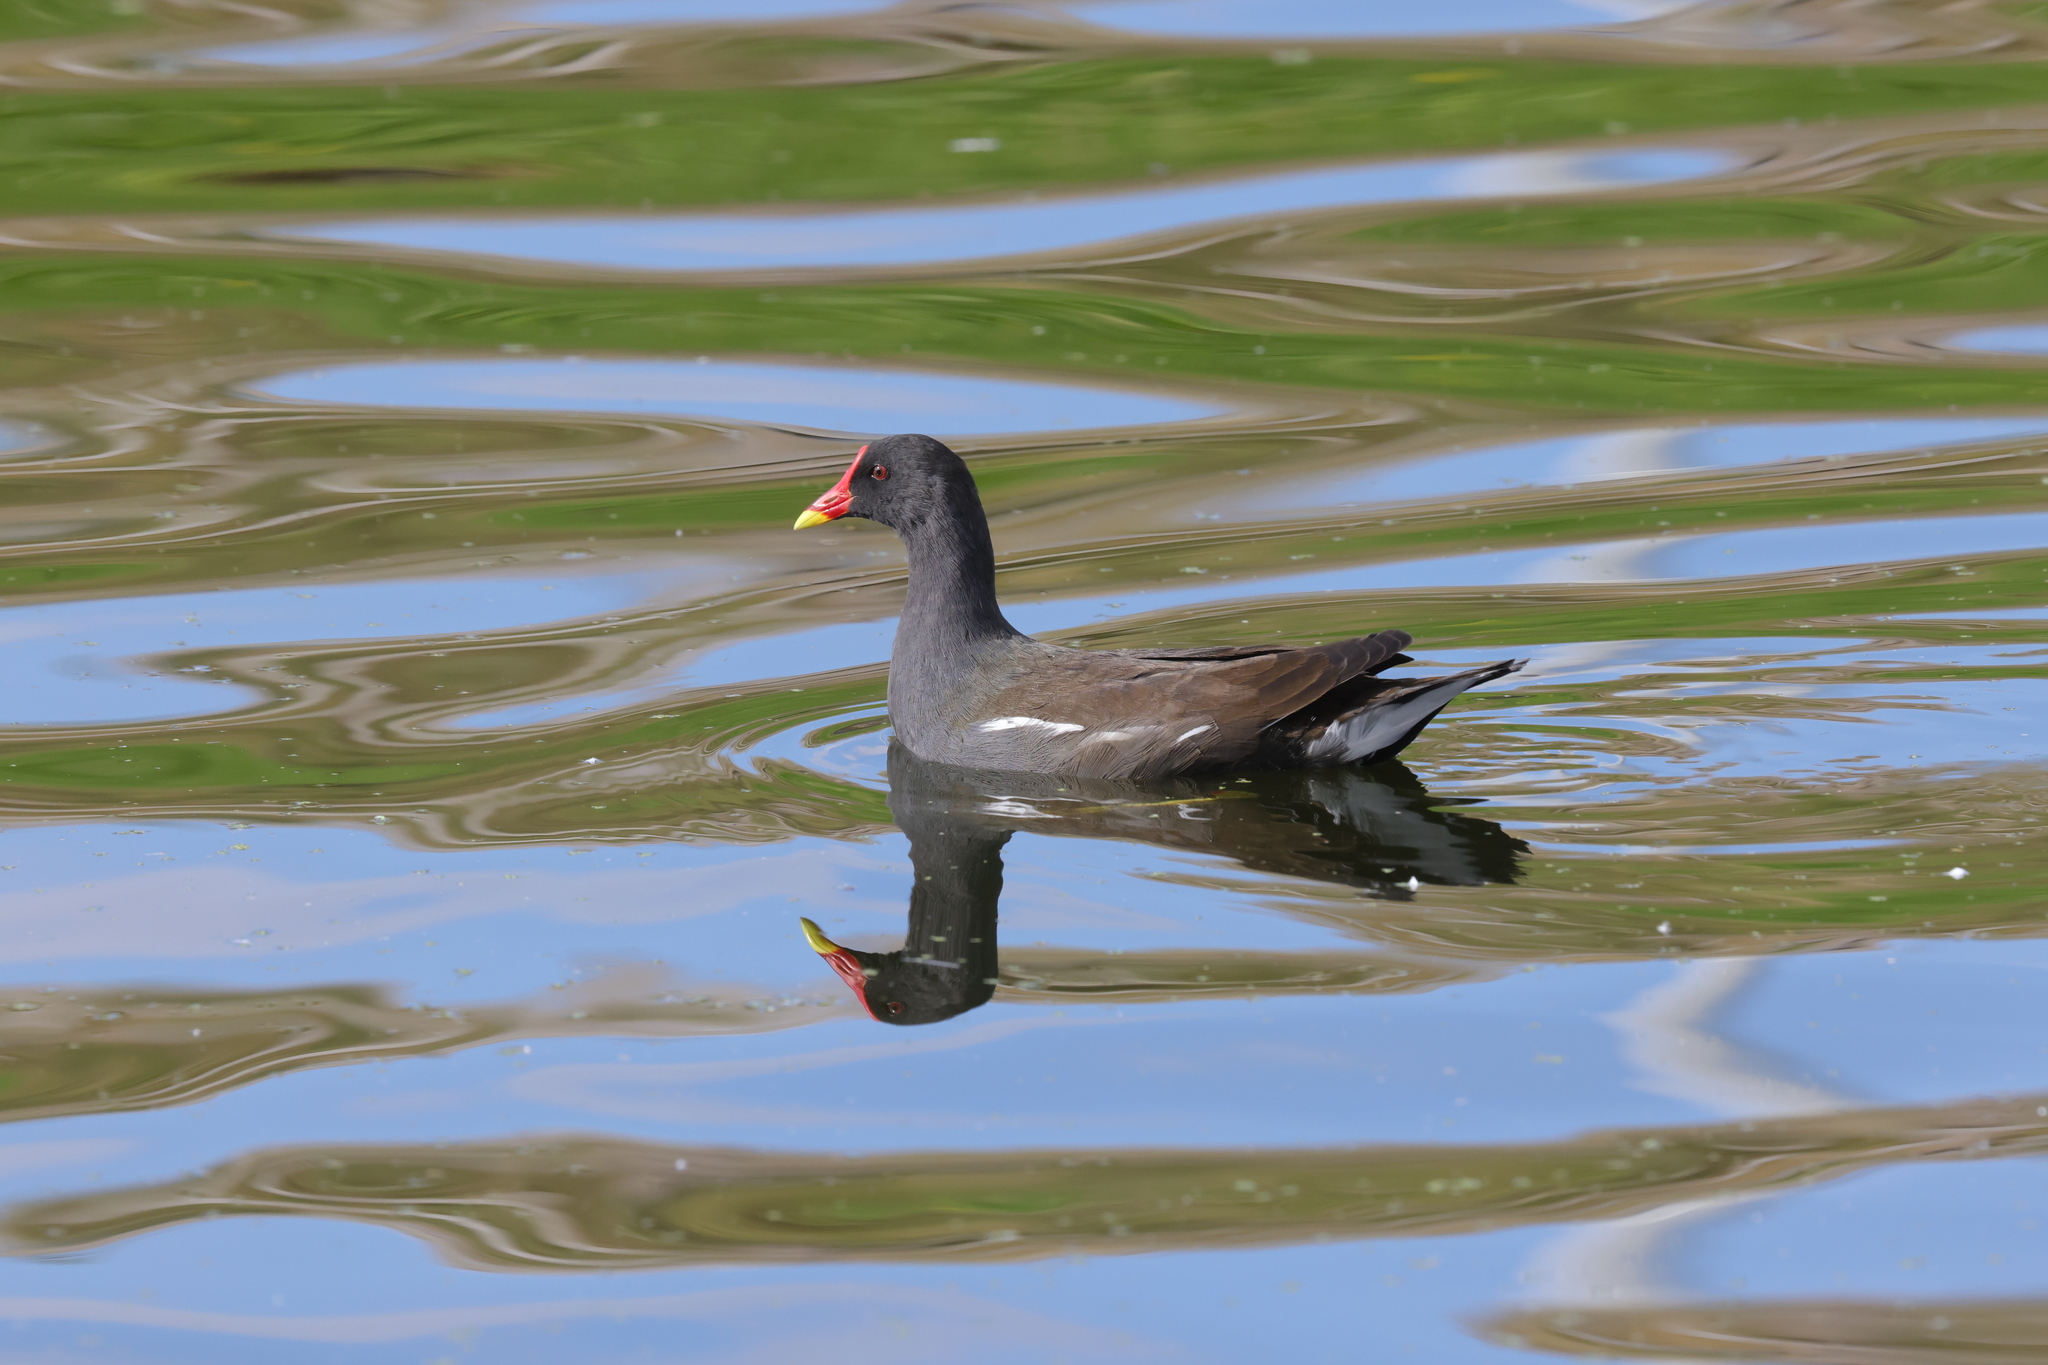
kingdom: Animalia
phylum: Chordata
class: Aves
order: Gruiformes
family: Rallidae
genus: Gallinula
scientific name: Gallinula chloropus
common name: Common moorhen
